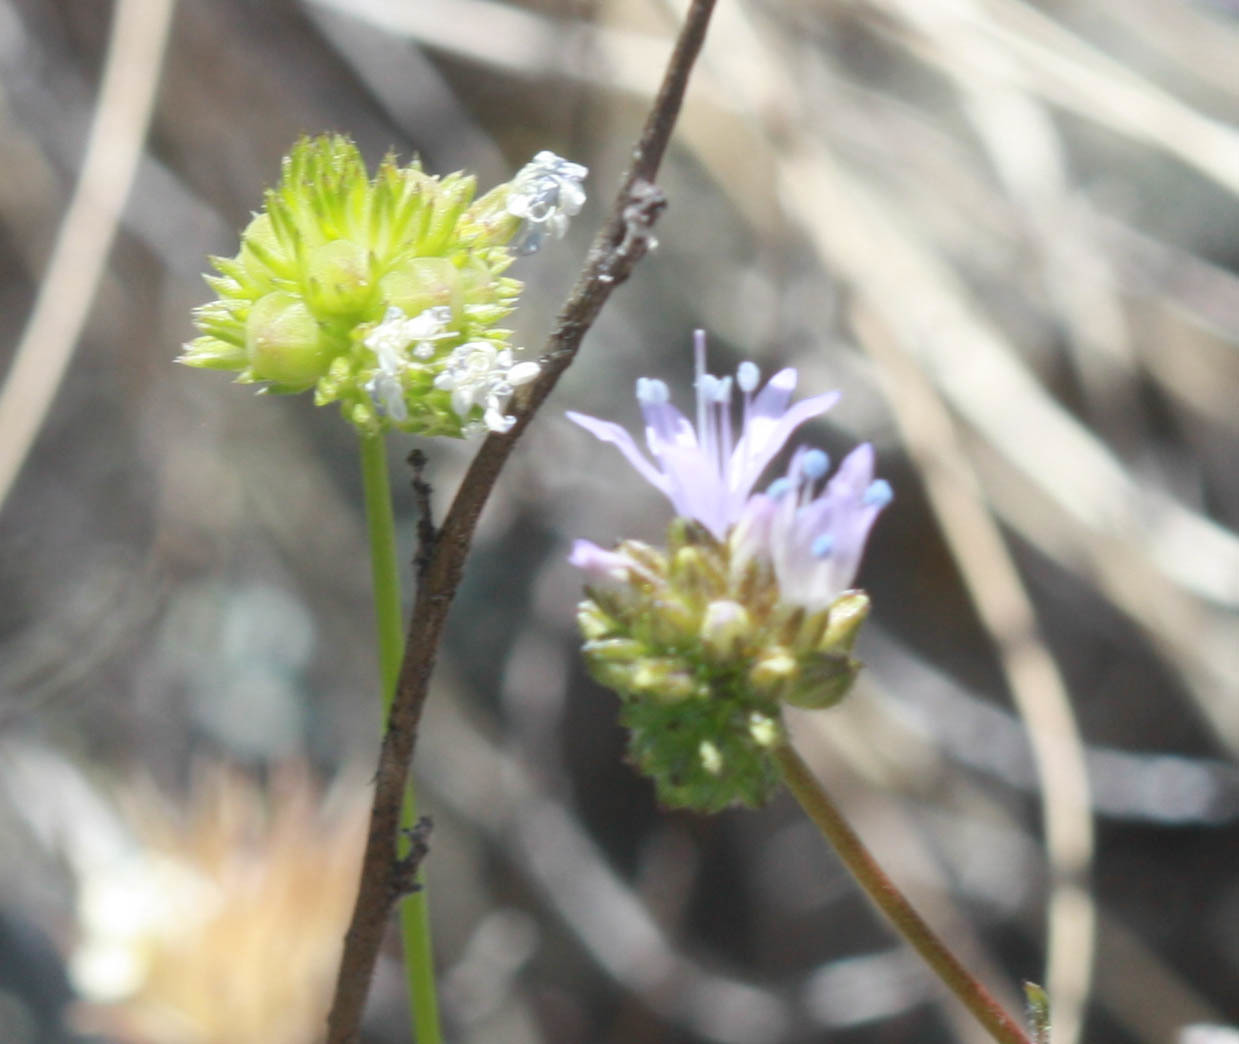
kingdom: Plantae
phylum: Tracheophyta
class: Magnoliopsida
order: Ericales
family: Polemoniaceae
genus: Gilia
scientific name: Gilia capitata
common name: Bluehead gilia
